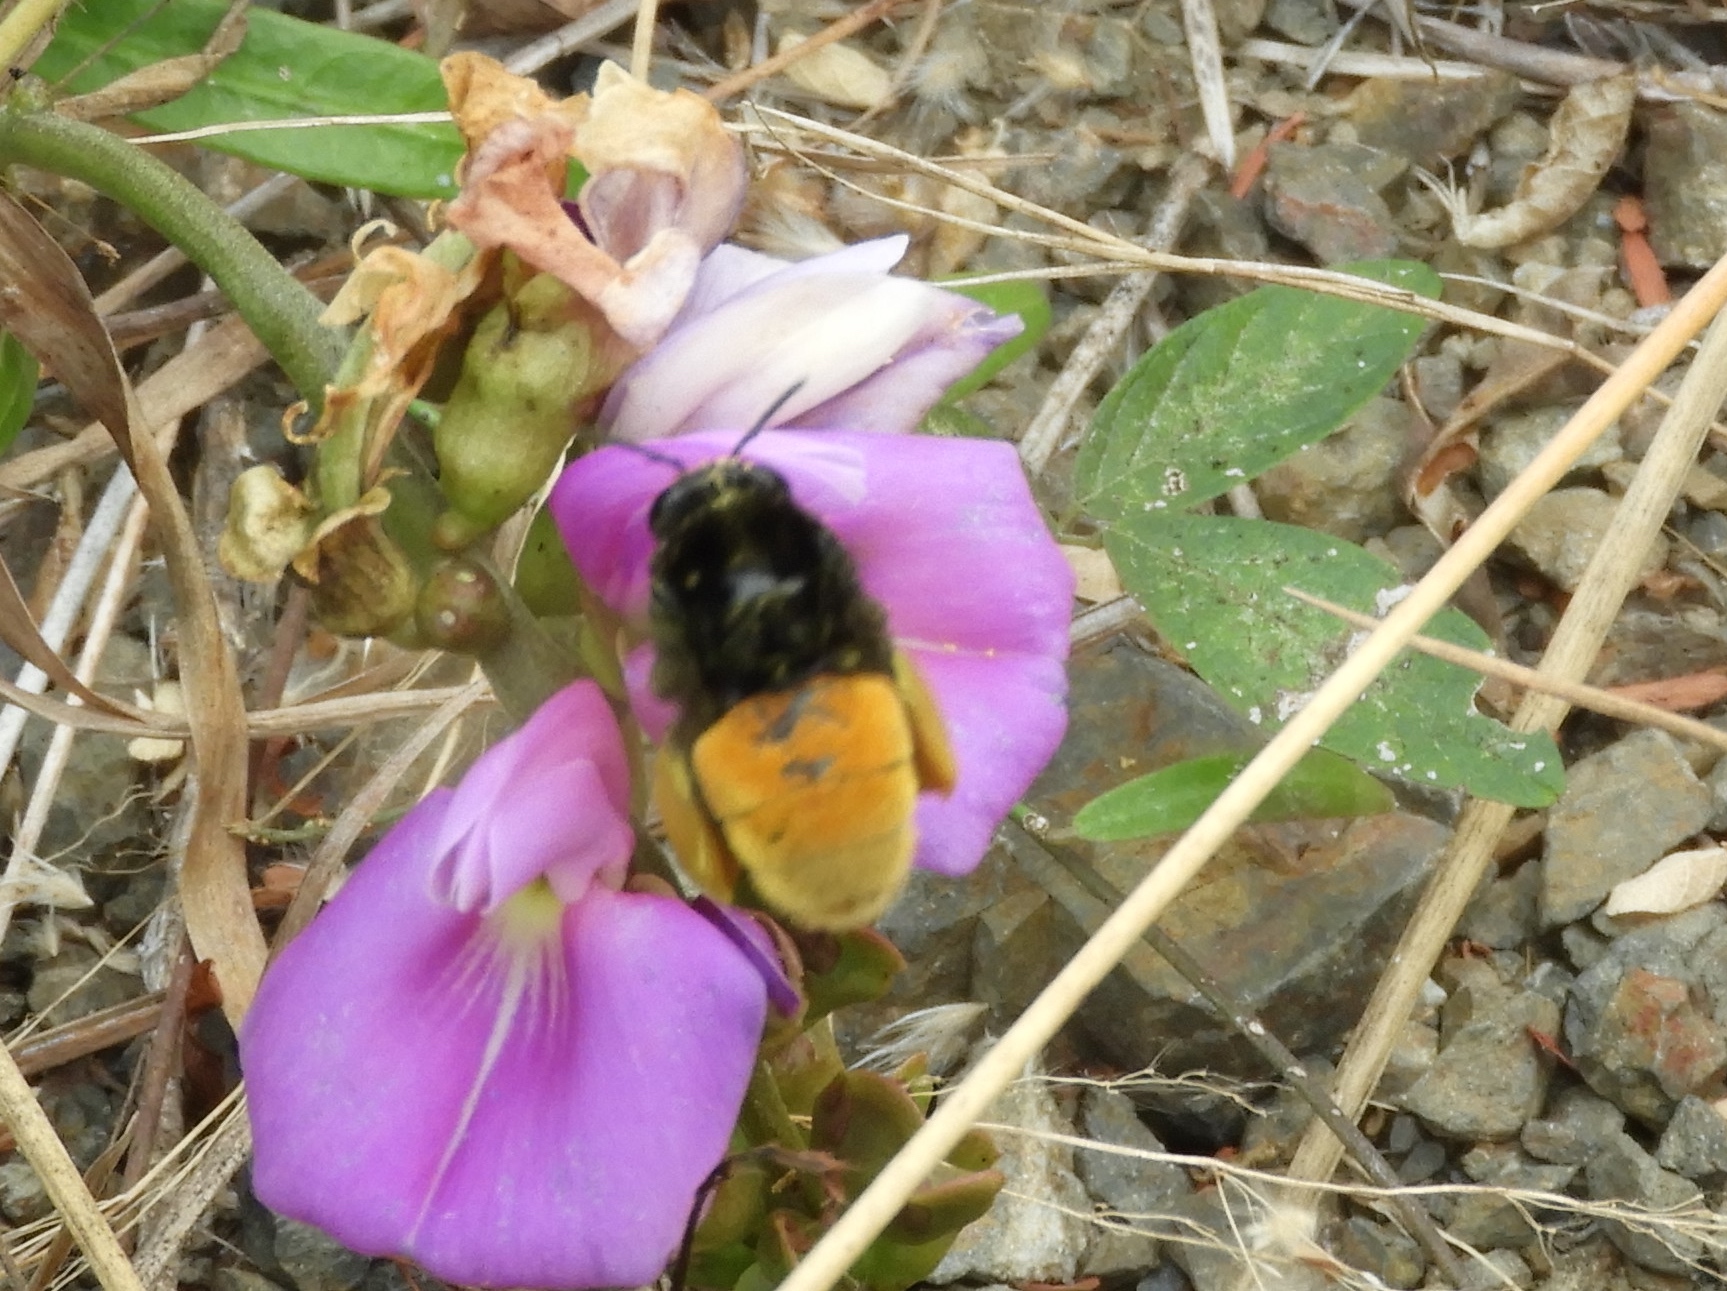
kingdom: Animalia
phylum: Arthropoda
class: Insecta
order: Hymenoptera
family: Apidae
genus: Eulaema
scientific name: Eulaema polychroma
